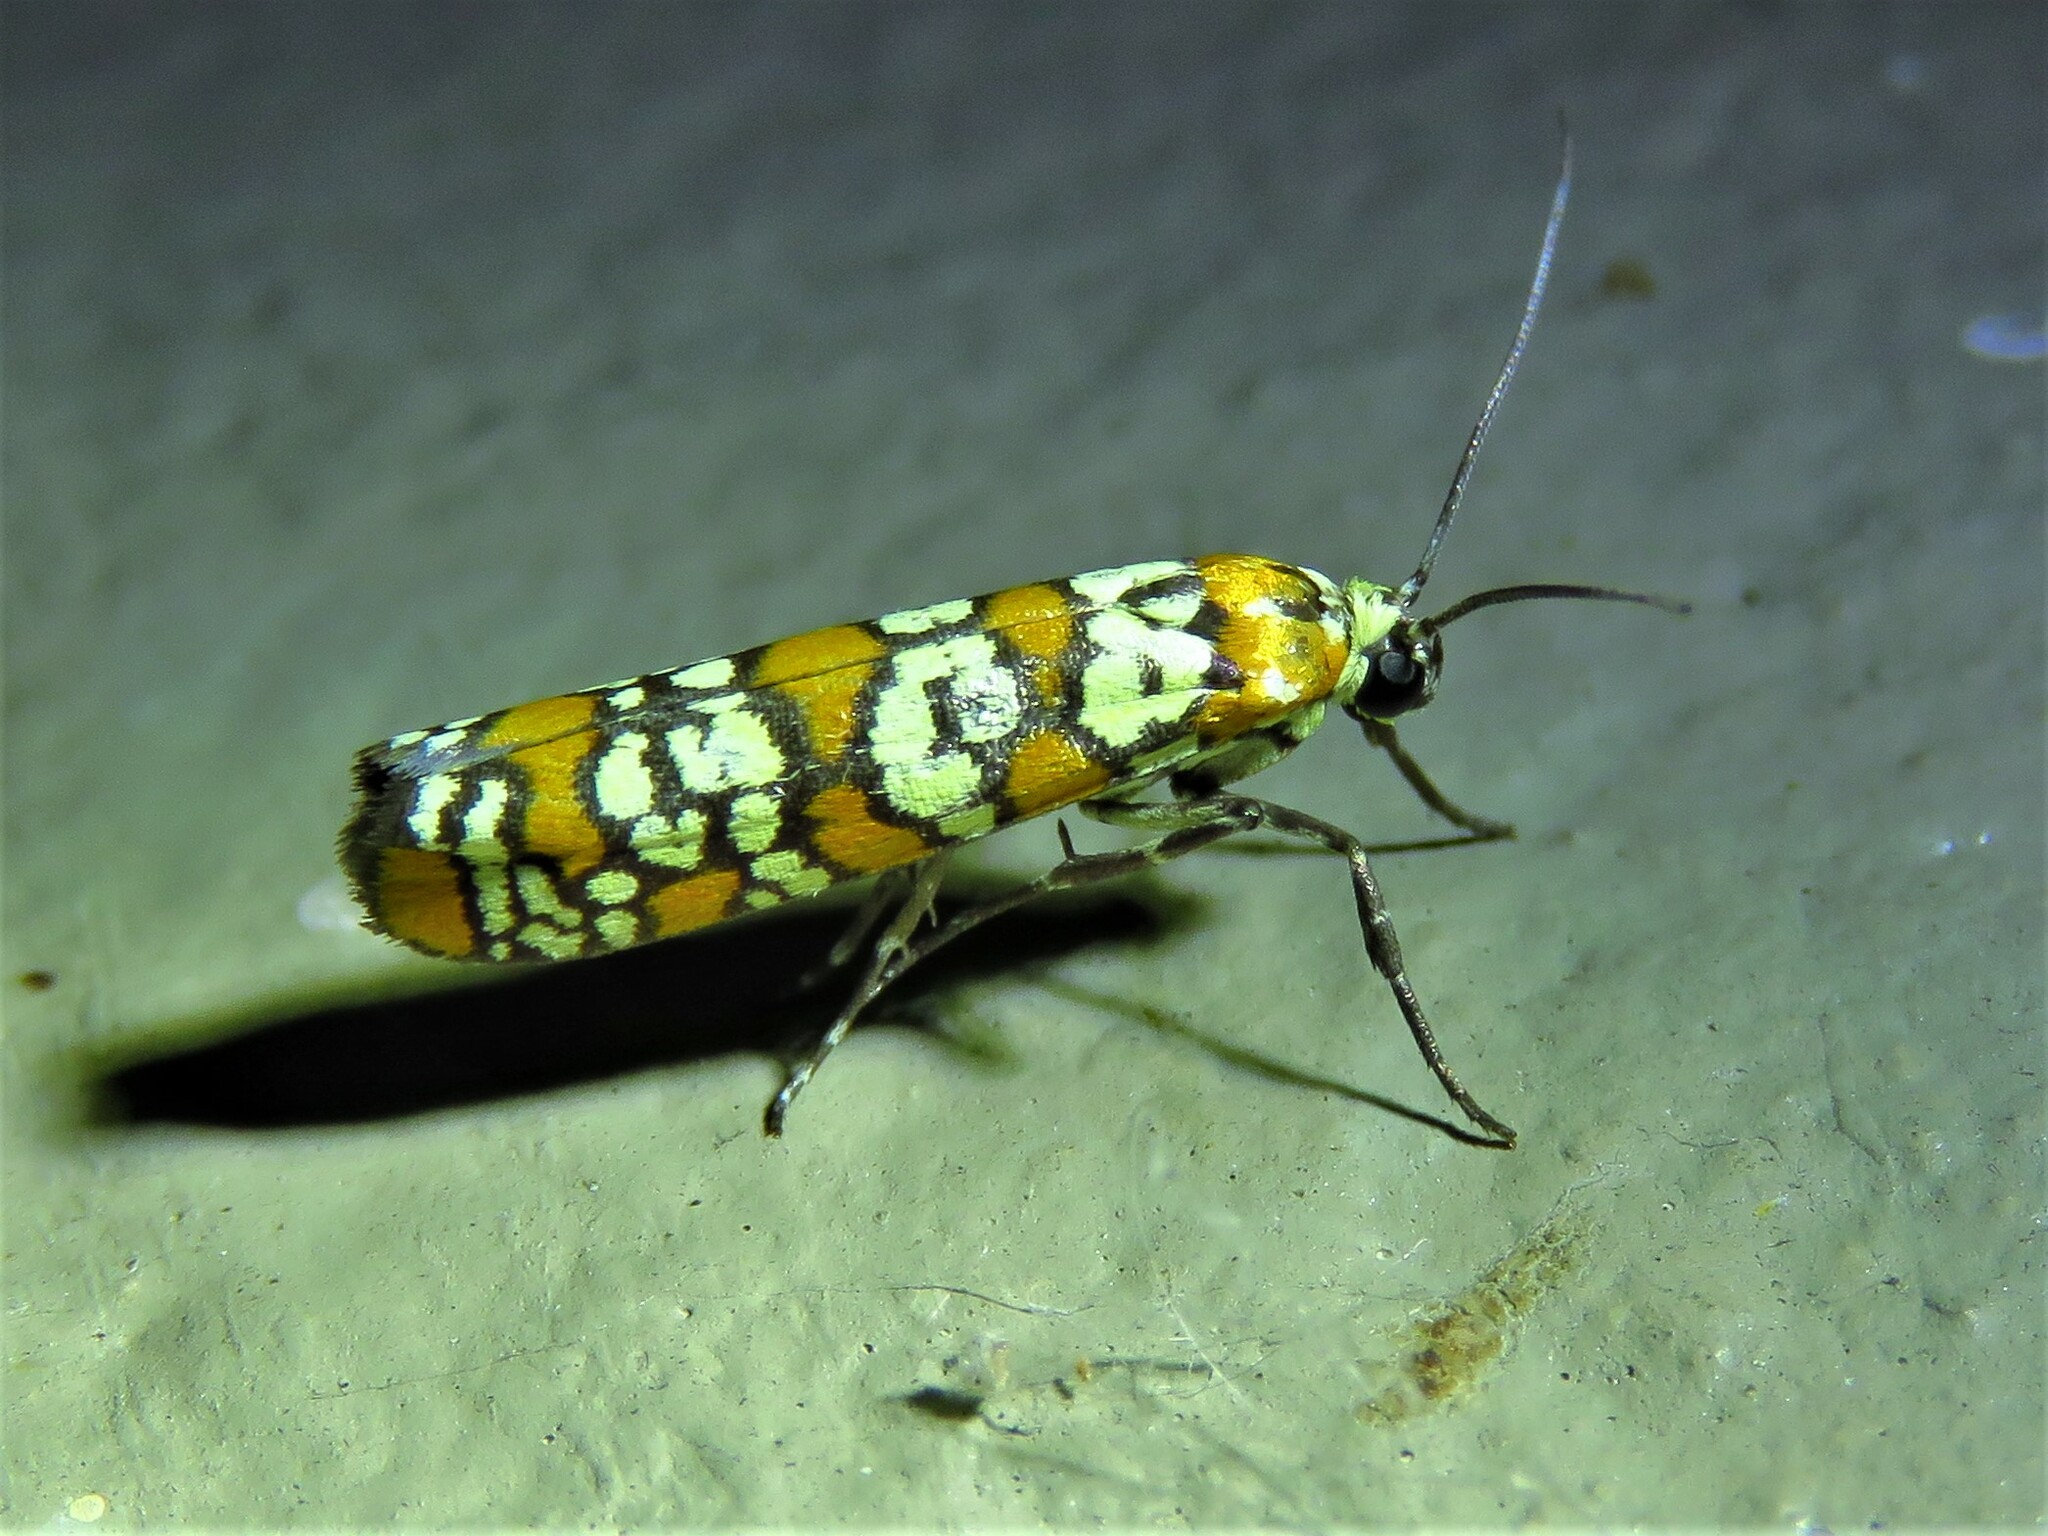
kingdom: Animalia
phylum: Arthropoda
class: Insecta
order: Lepidoptera
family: Attevidae
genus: Atteva
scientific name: Atteva punctella
